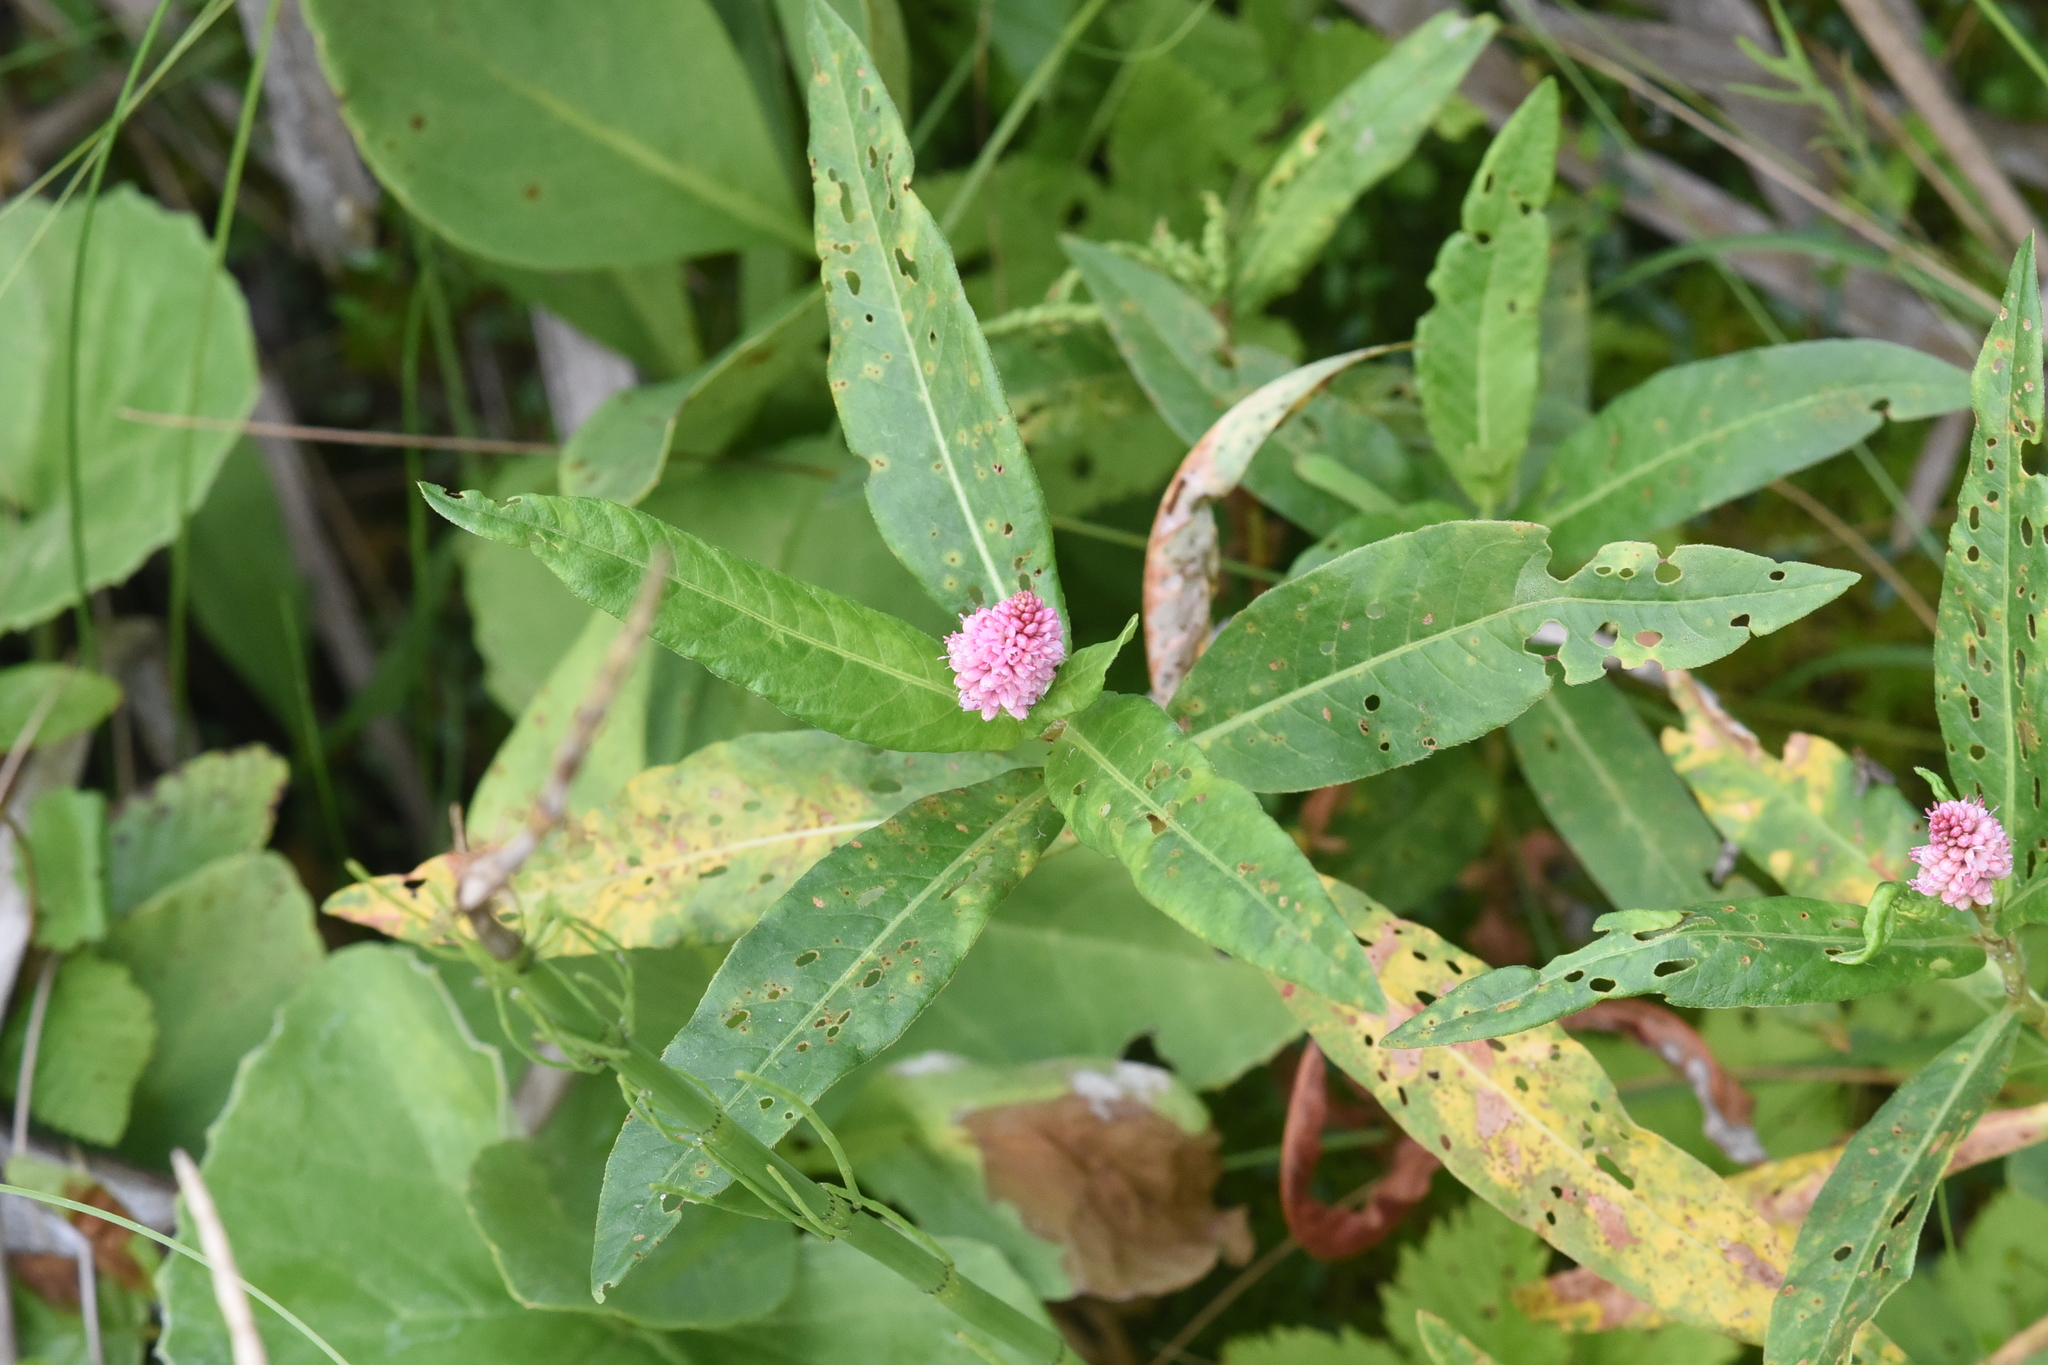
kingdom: Plantae
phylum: Tracheophyta
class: Magnoliopsida
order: Caryophyllales
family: Polygonaceae
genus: Persicaria
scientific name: Persicaria amphibia
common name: Amphibious bistort
